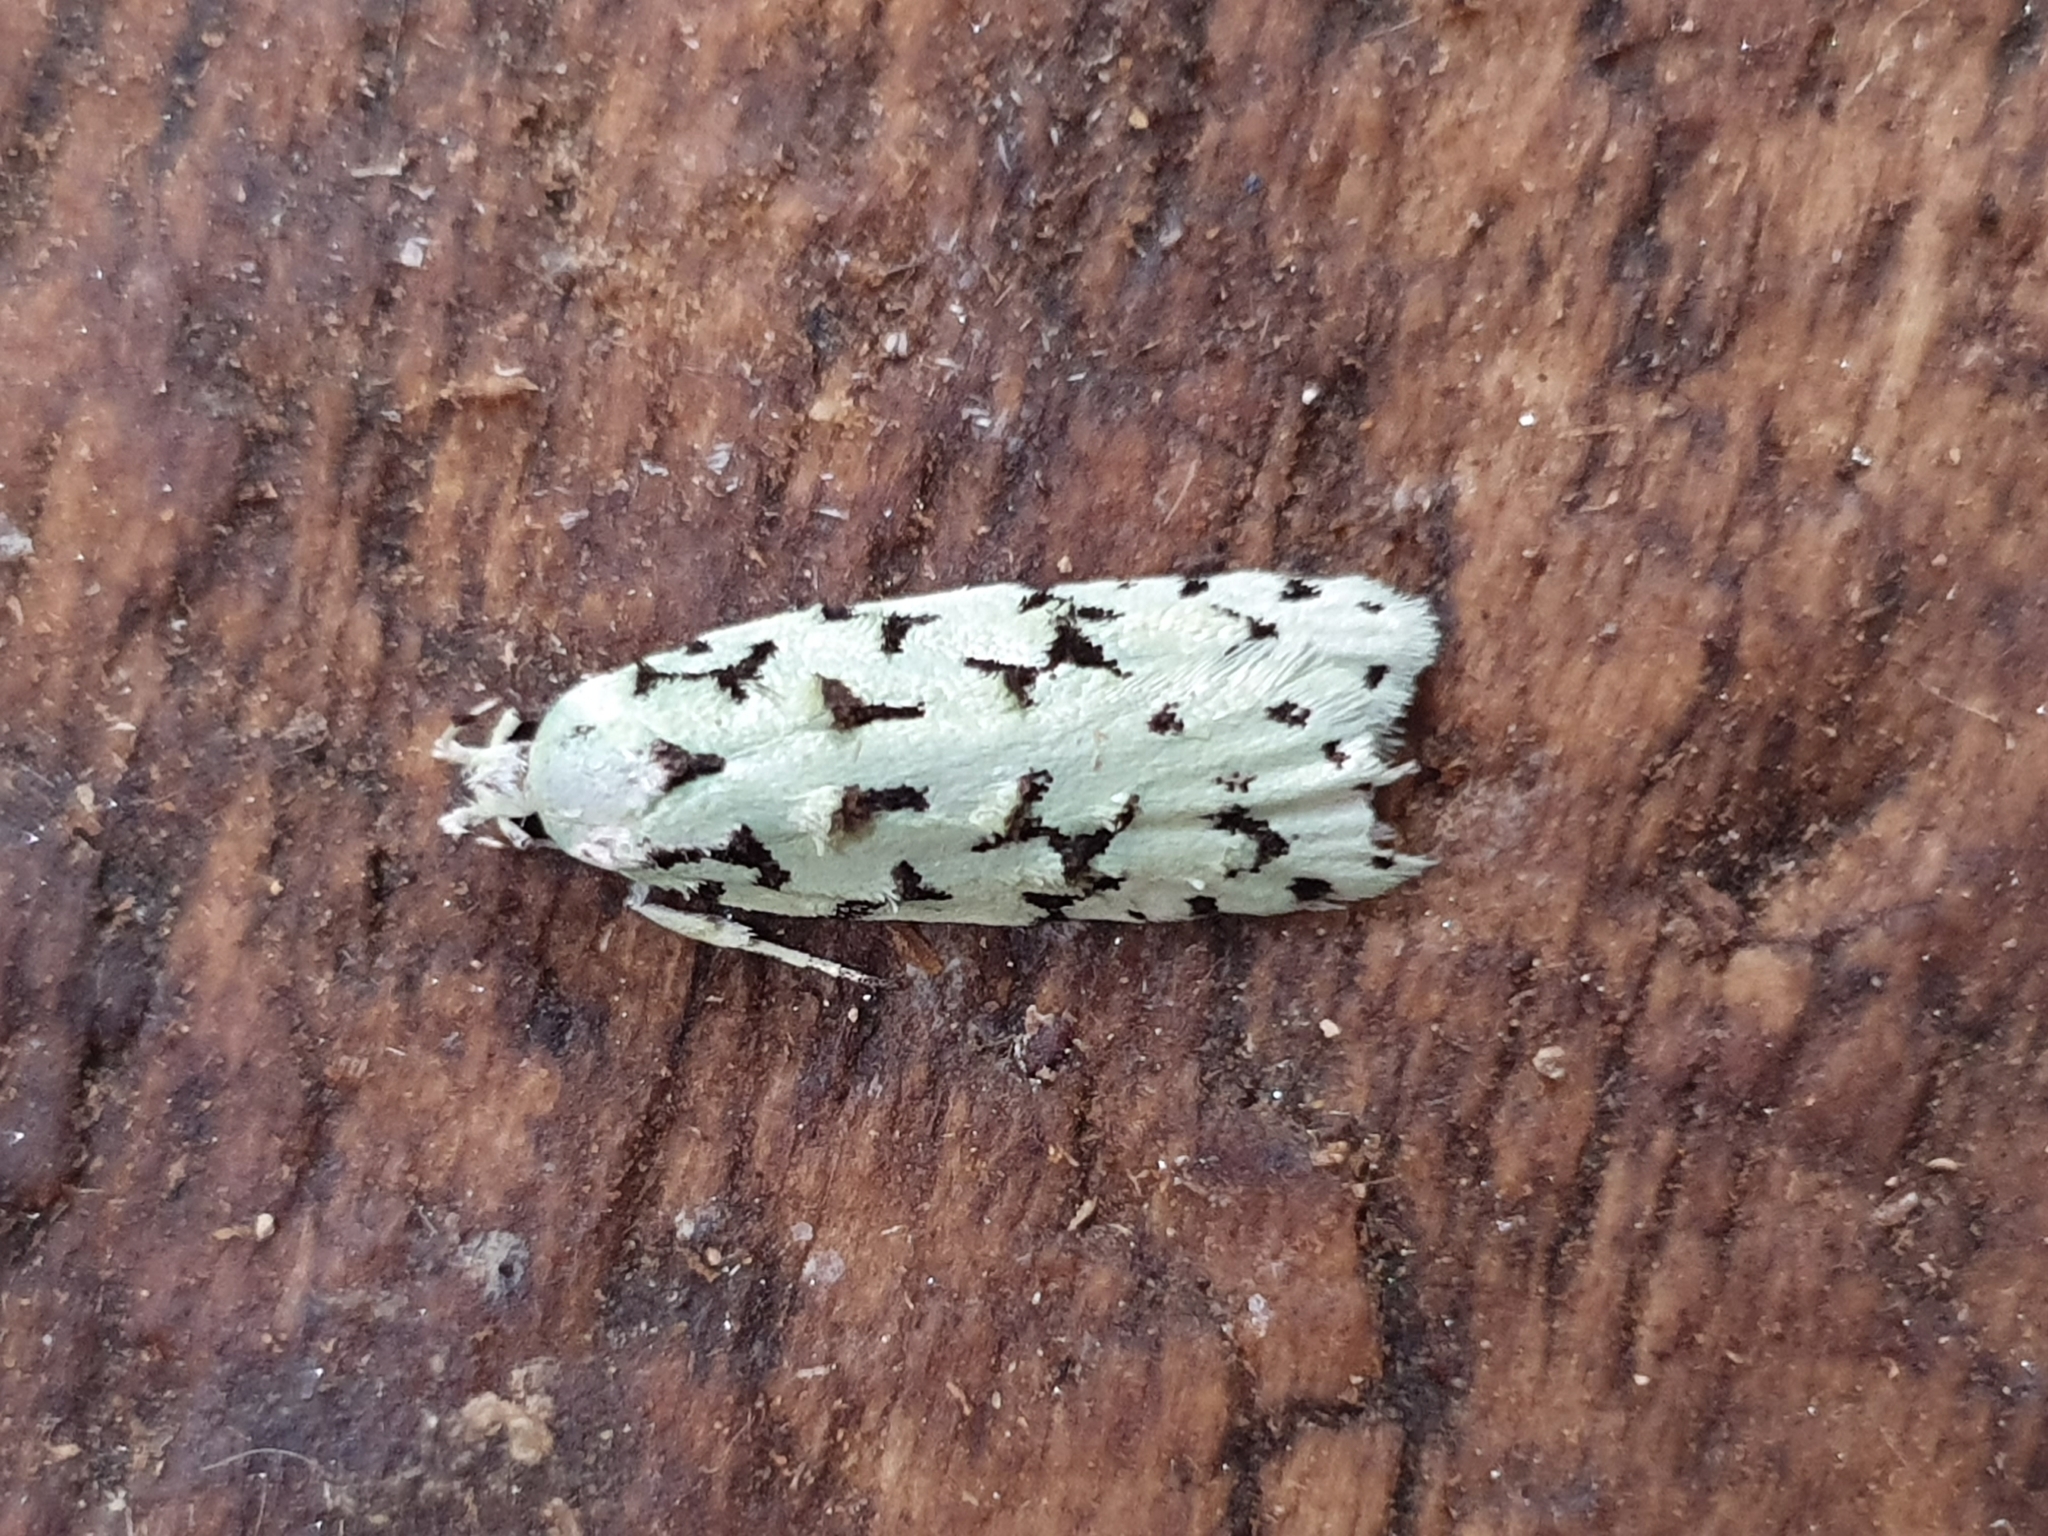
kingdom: Animalia
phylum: Arthropoda
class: Insecta
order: Lepidoptera
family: Oecophoridae
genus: Izatha
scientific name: Izatha huttoni
